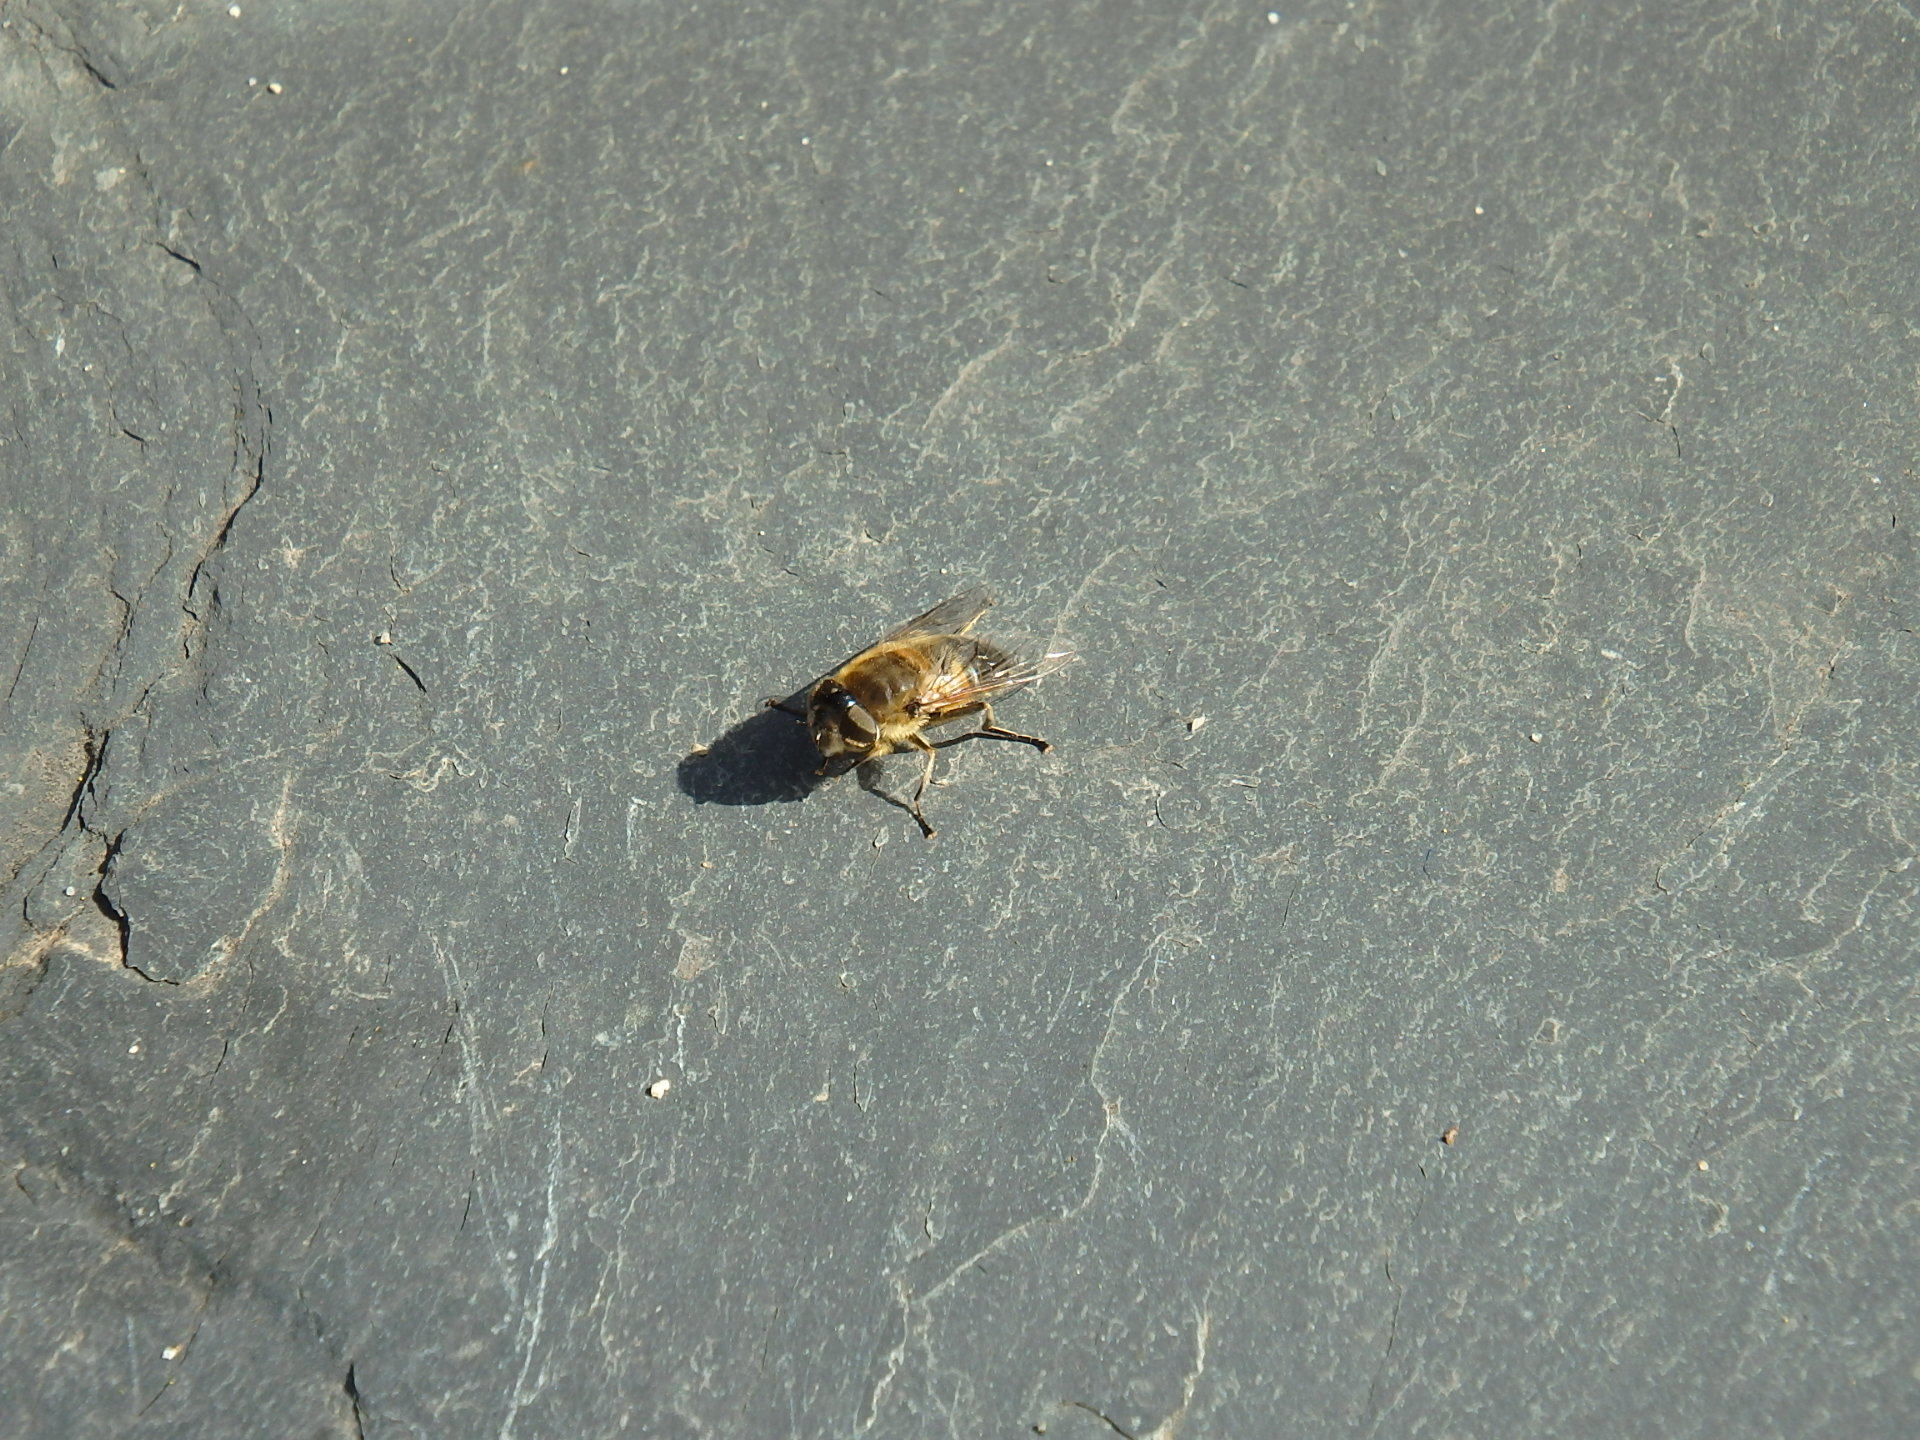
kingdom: Animalia
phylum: Arthropoda
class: Insecta
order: Diptera
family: Syrphidae
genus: Eristalis
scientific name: Eristalis pertinax
